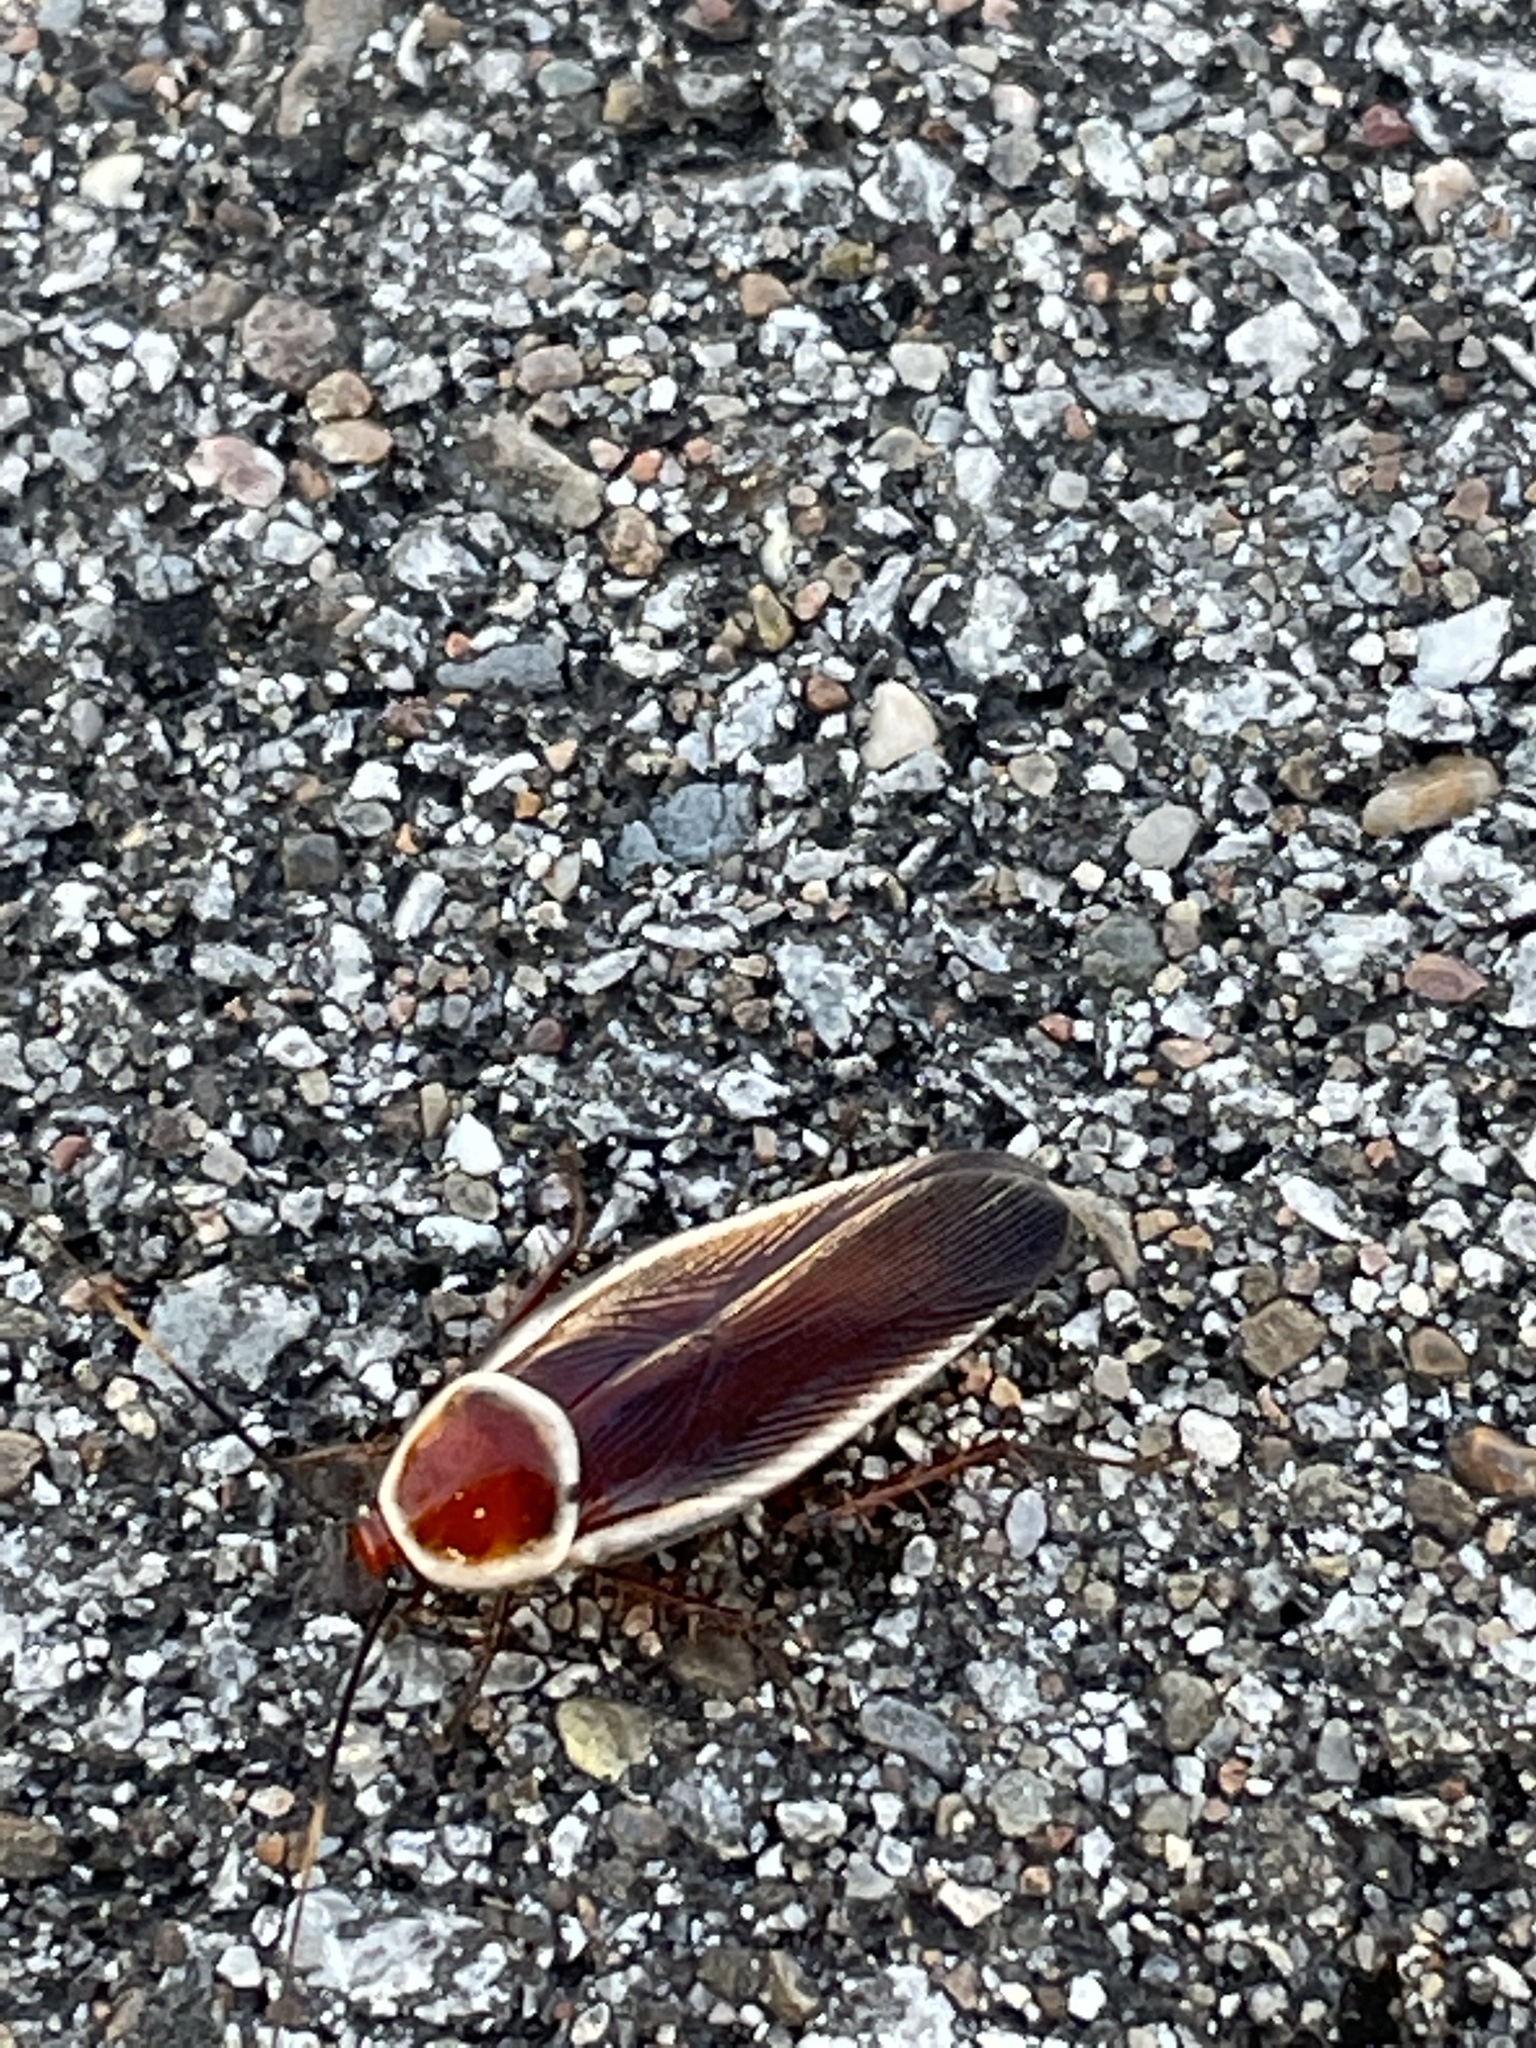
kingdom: Animalia
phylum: Arthropoda
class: Insecta
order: Blattodea
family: Ectobiidae
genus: Pseudomops
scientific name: Pseudomops septentrionalis
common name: Pale-bordered field cockroach
